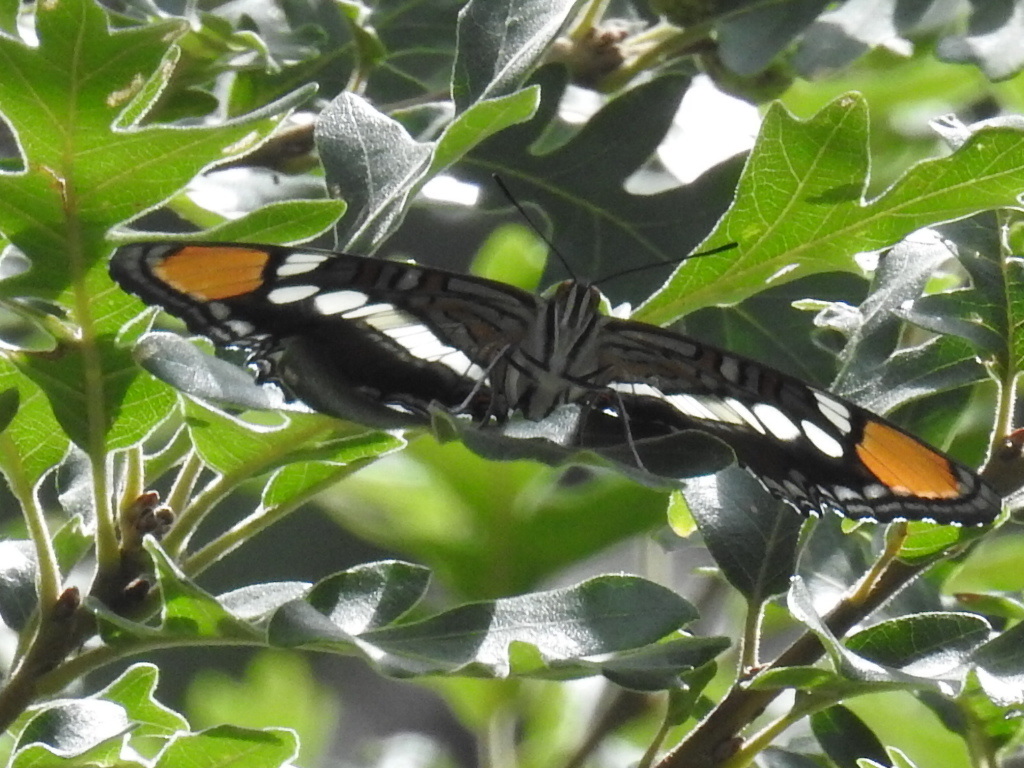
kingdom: Animalia
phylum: Arthropoda
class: Insecta
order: Lepidoptera
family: Nymphalidae
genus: Limenitis
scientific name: Limenitis bredowii
